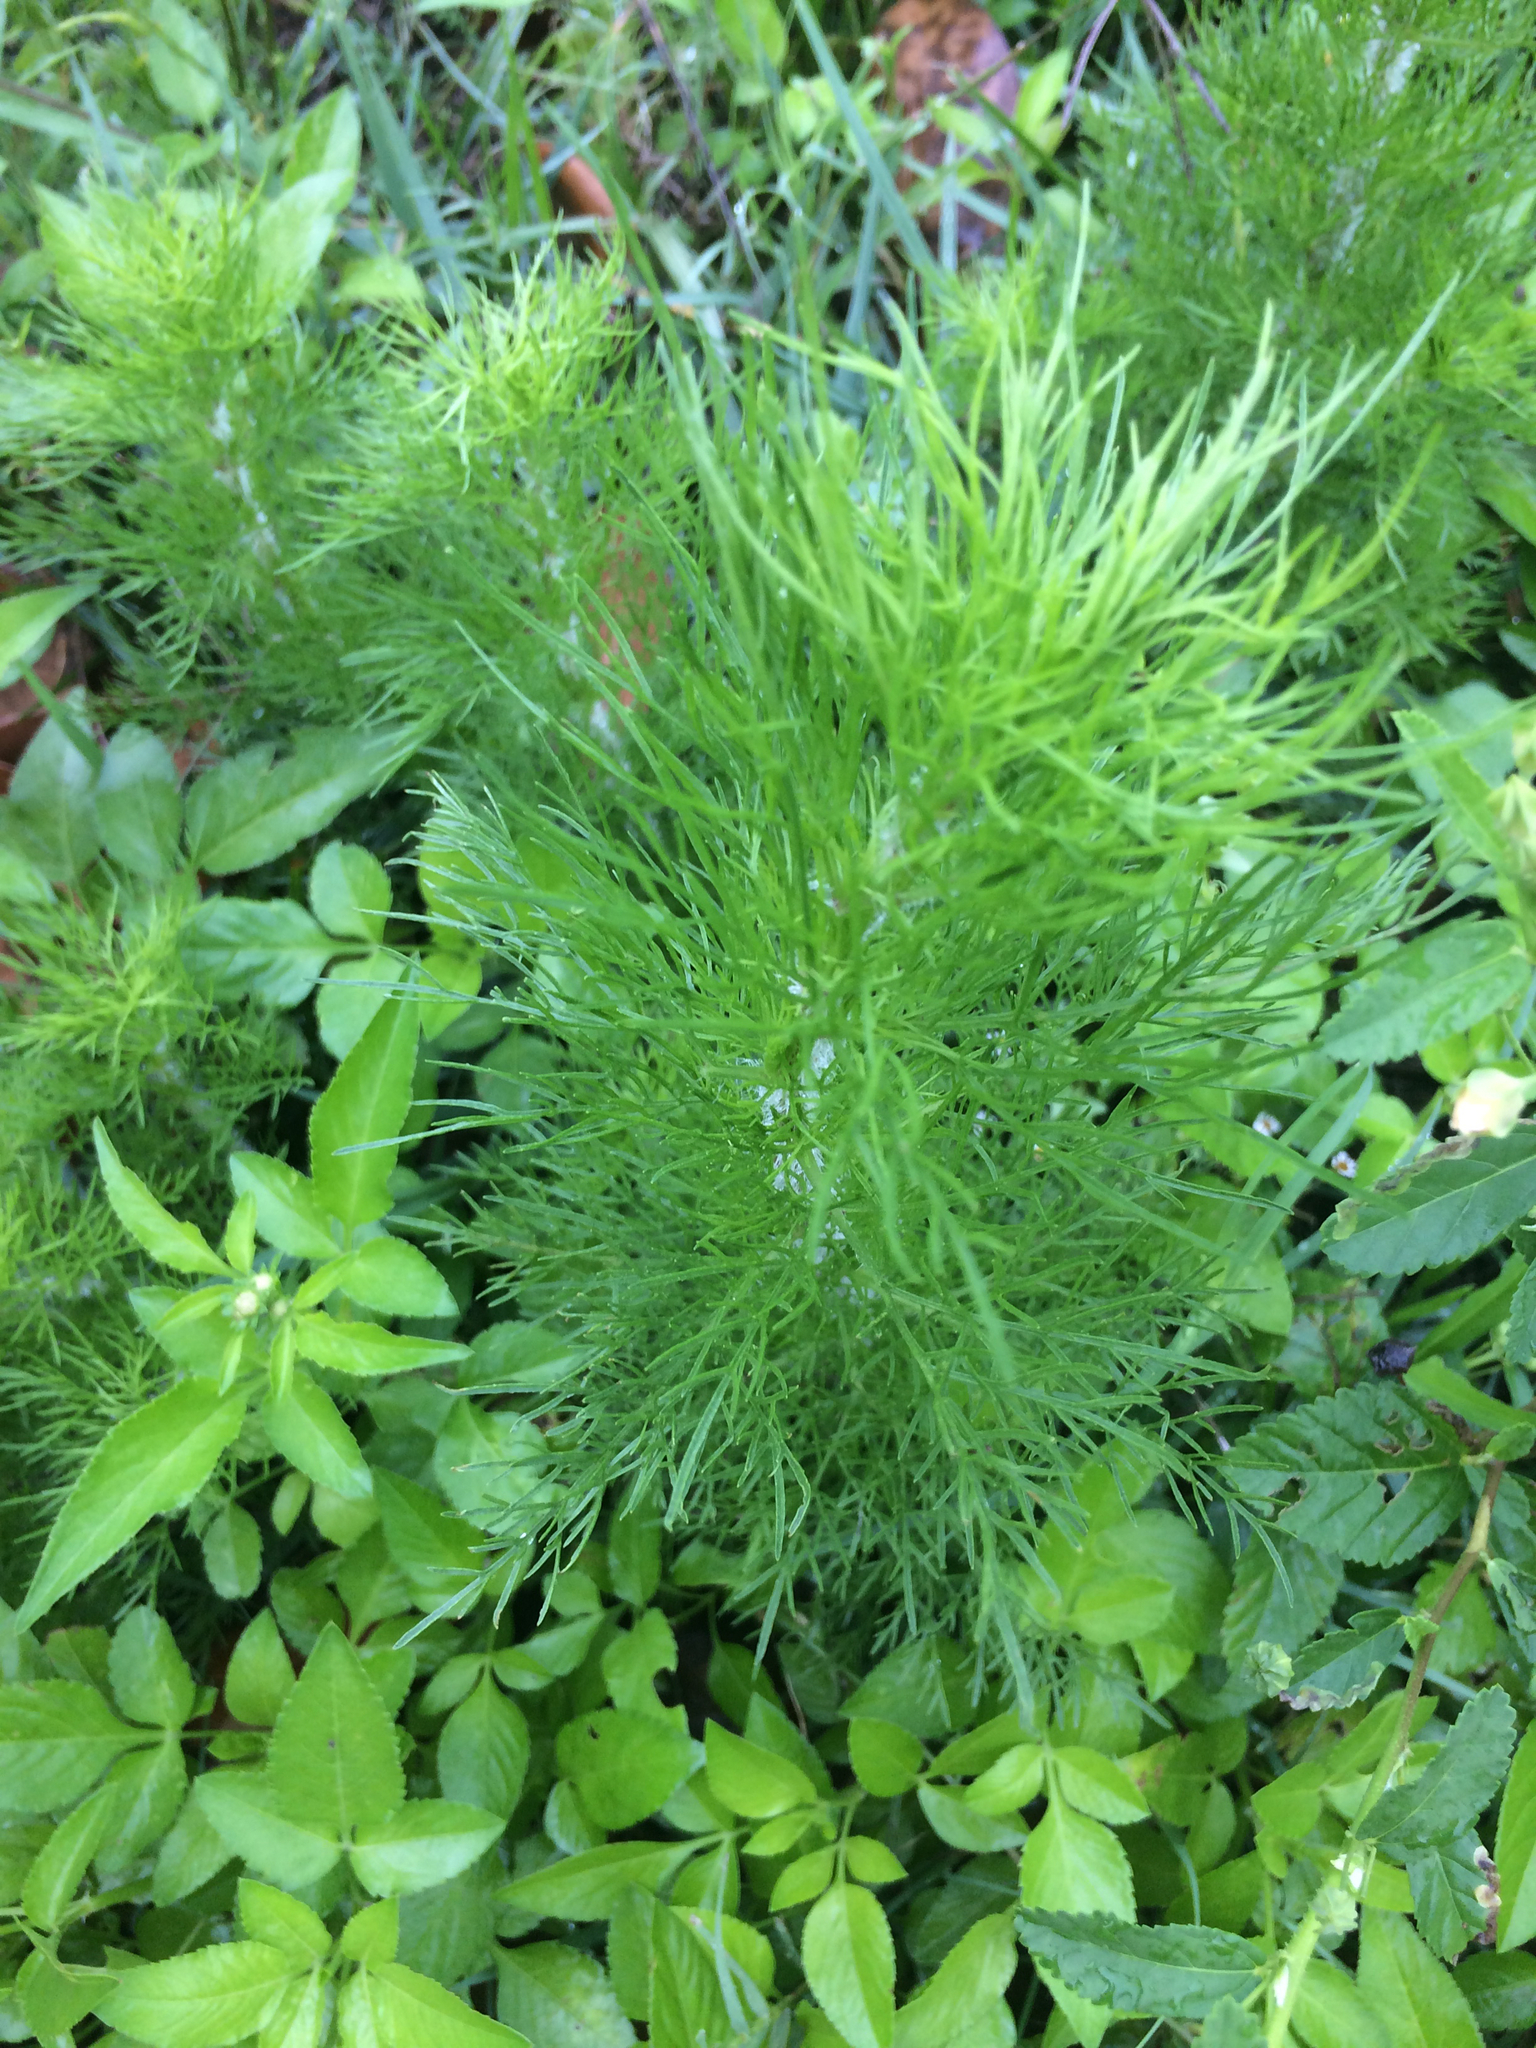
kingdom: Plantae
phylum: Tracheophyta
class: Magnoliopsida
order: Asterales
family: Asteraceae
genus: Eupatorium
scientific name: Eupatorium capillifolium
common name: Dog-fennel
